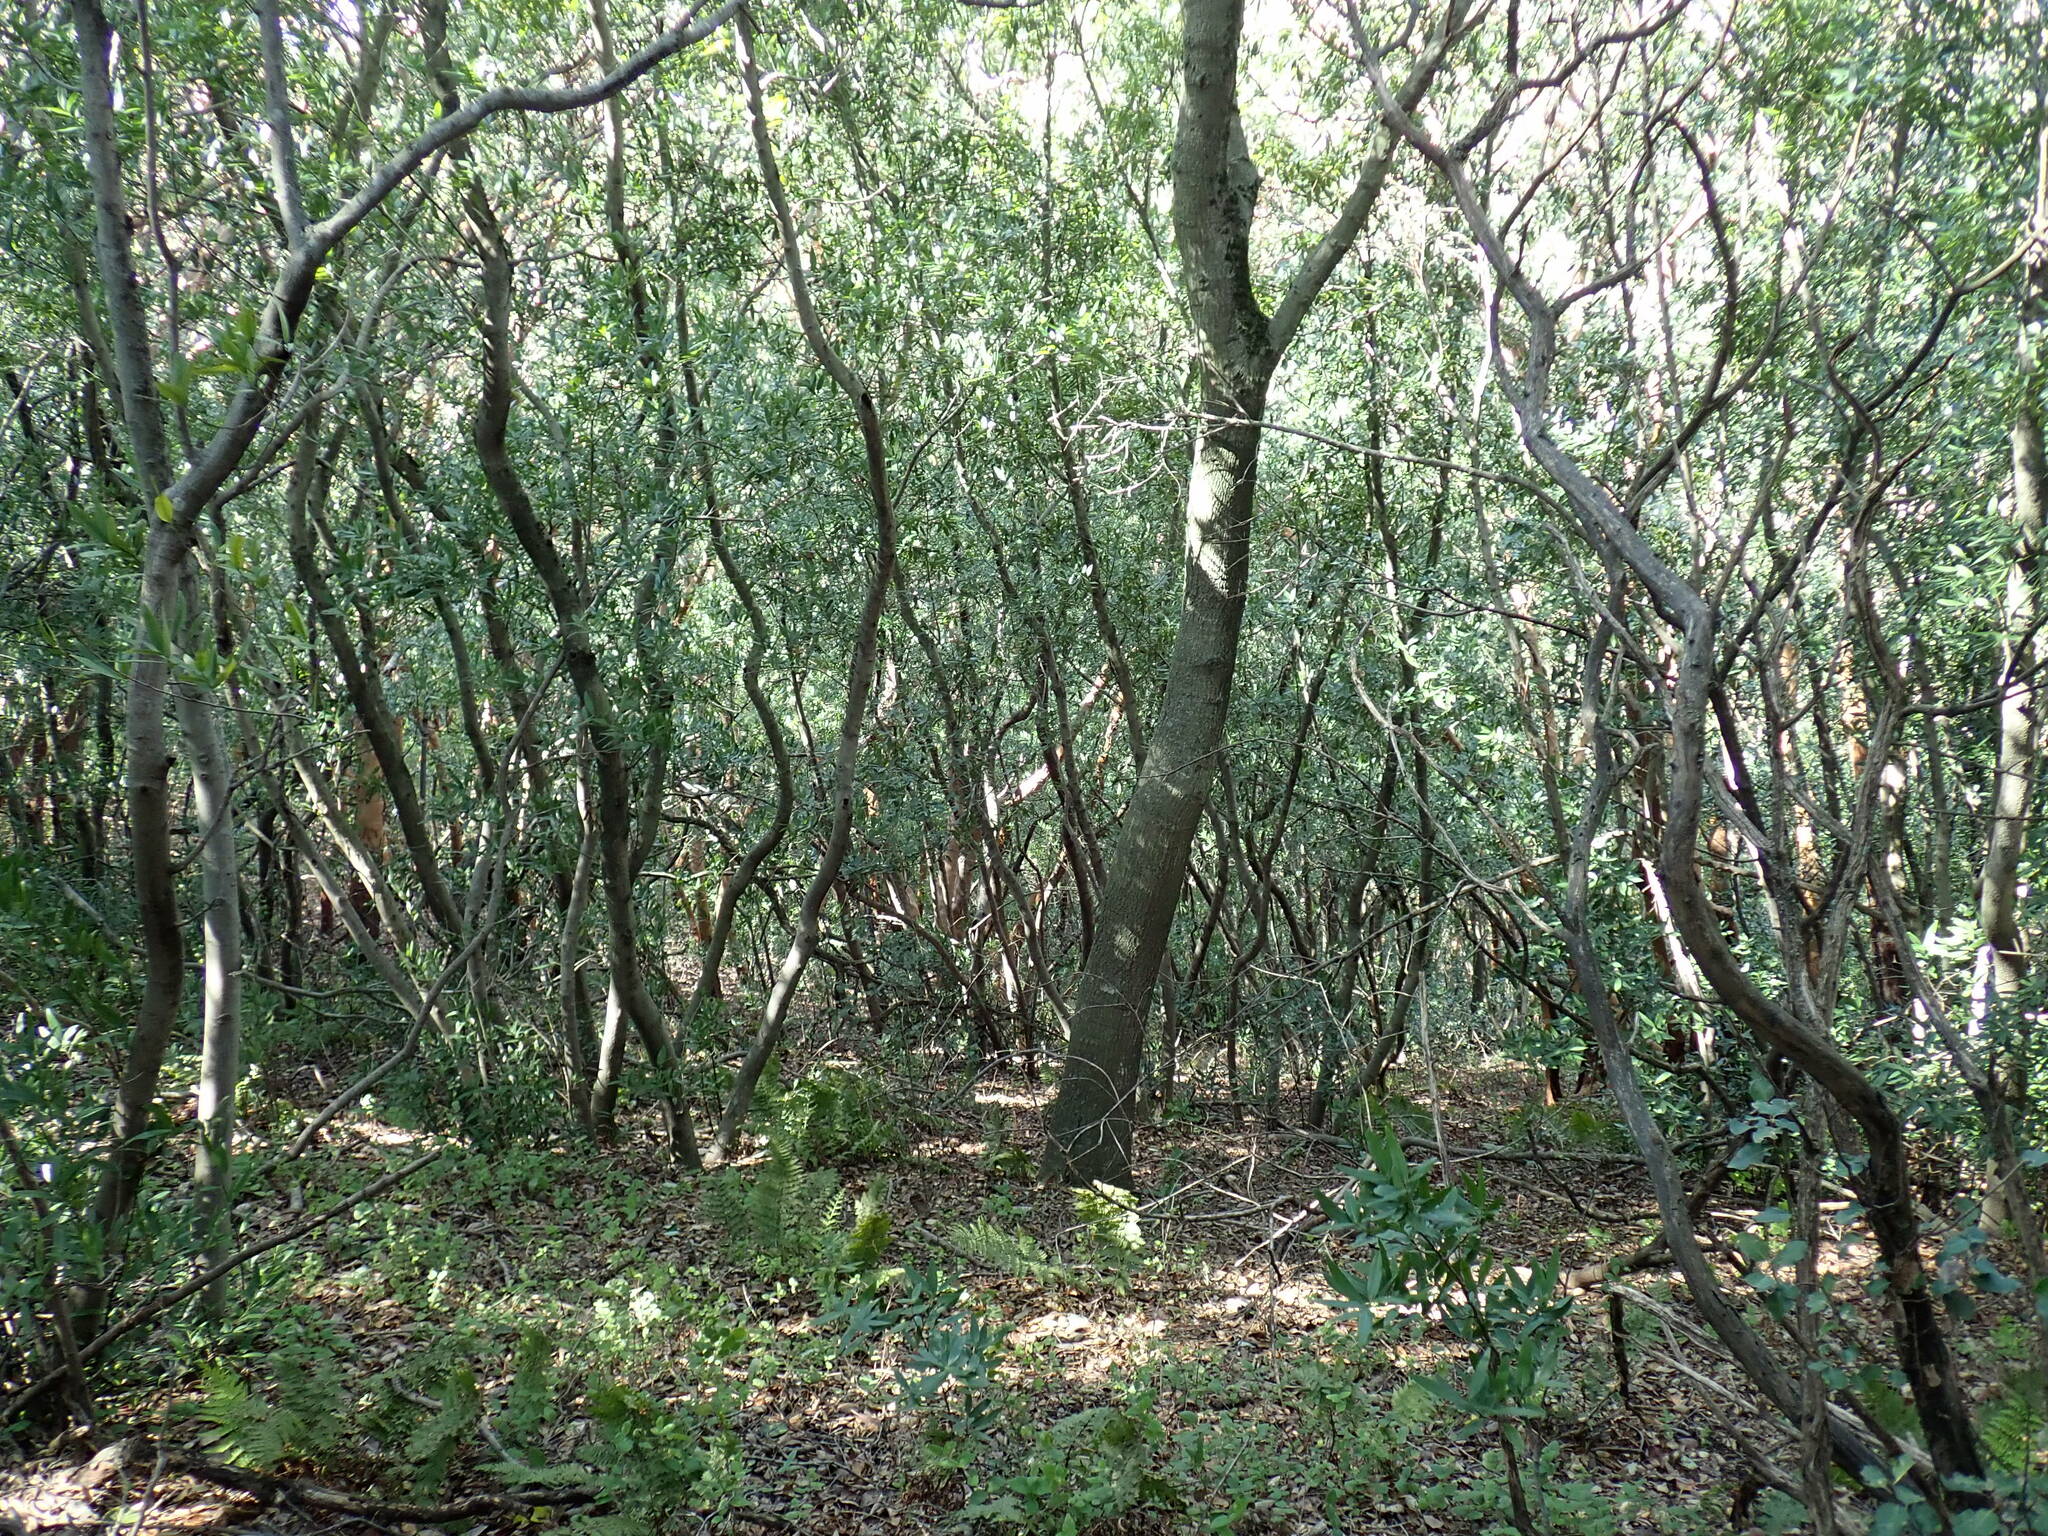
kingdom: Plantae
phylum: Tracheophyta
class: Polypodiopsida
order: Polypodiales
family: Dryopteridaceae
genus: Dryopteris
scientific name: Dryopteris arguta
